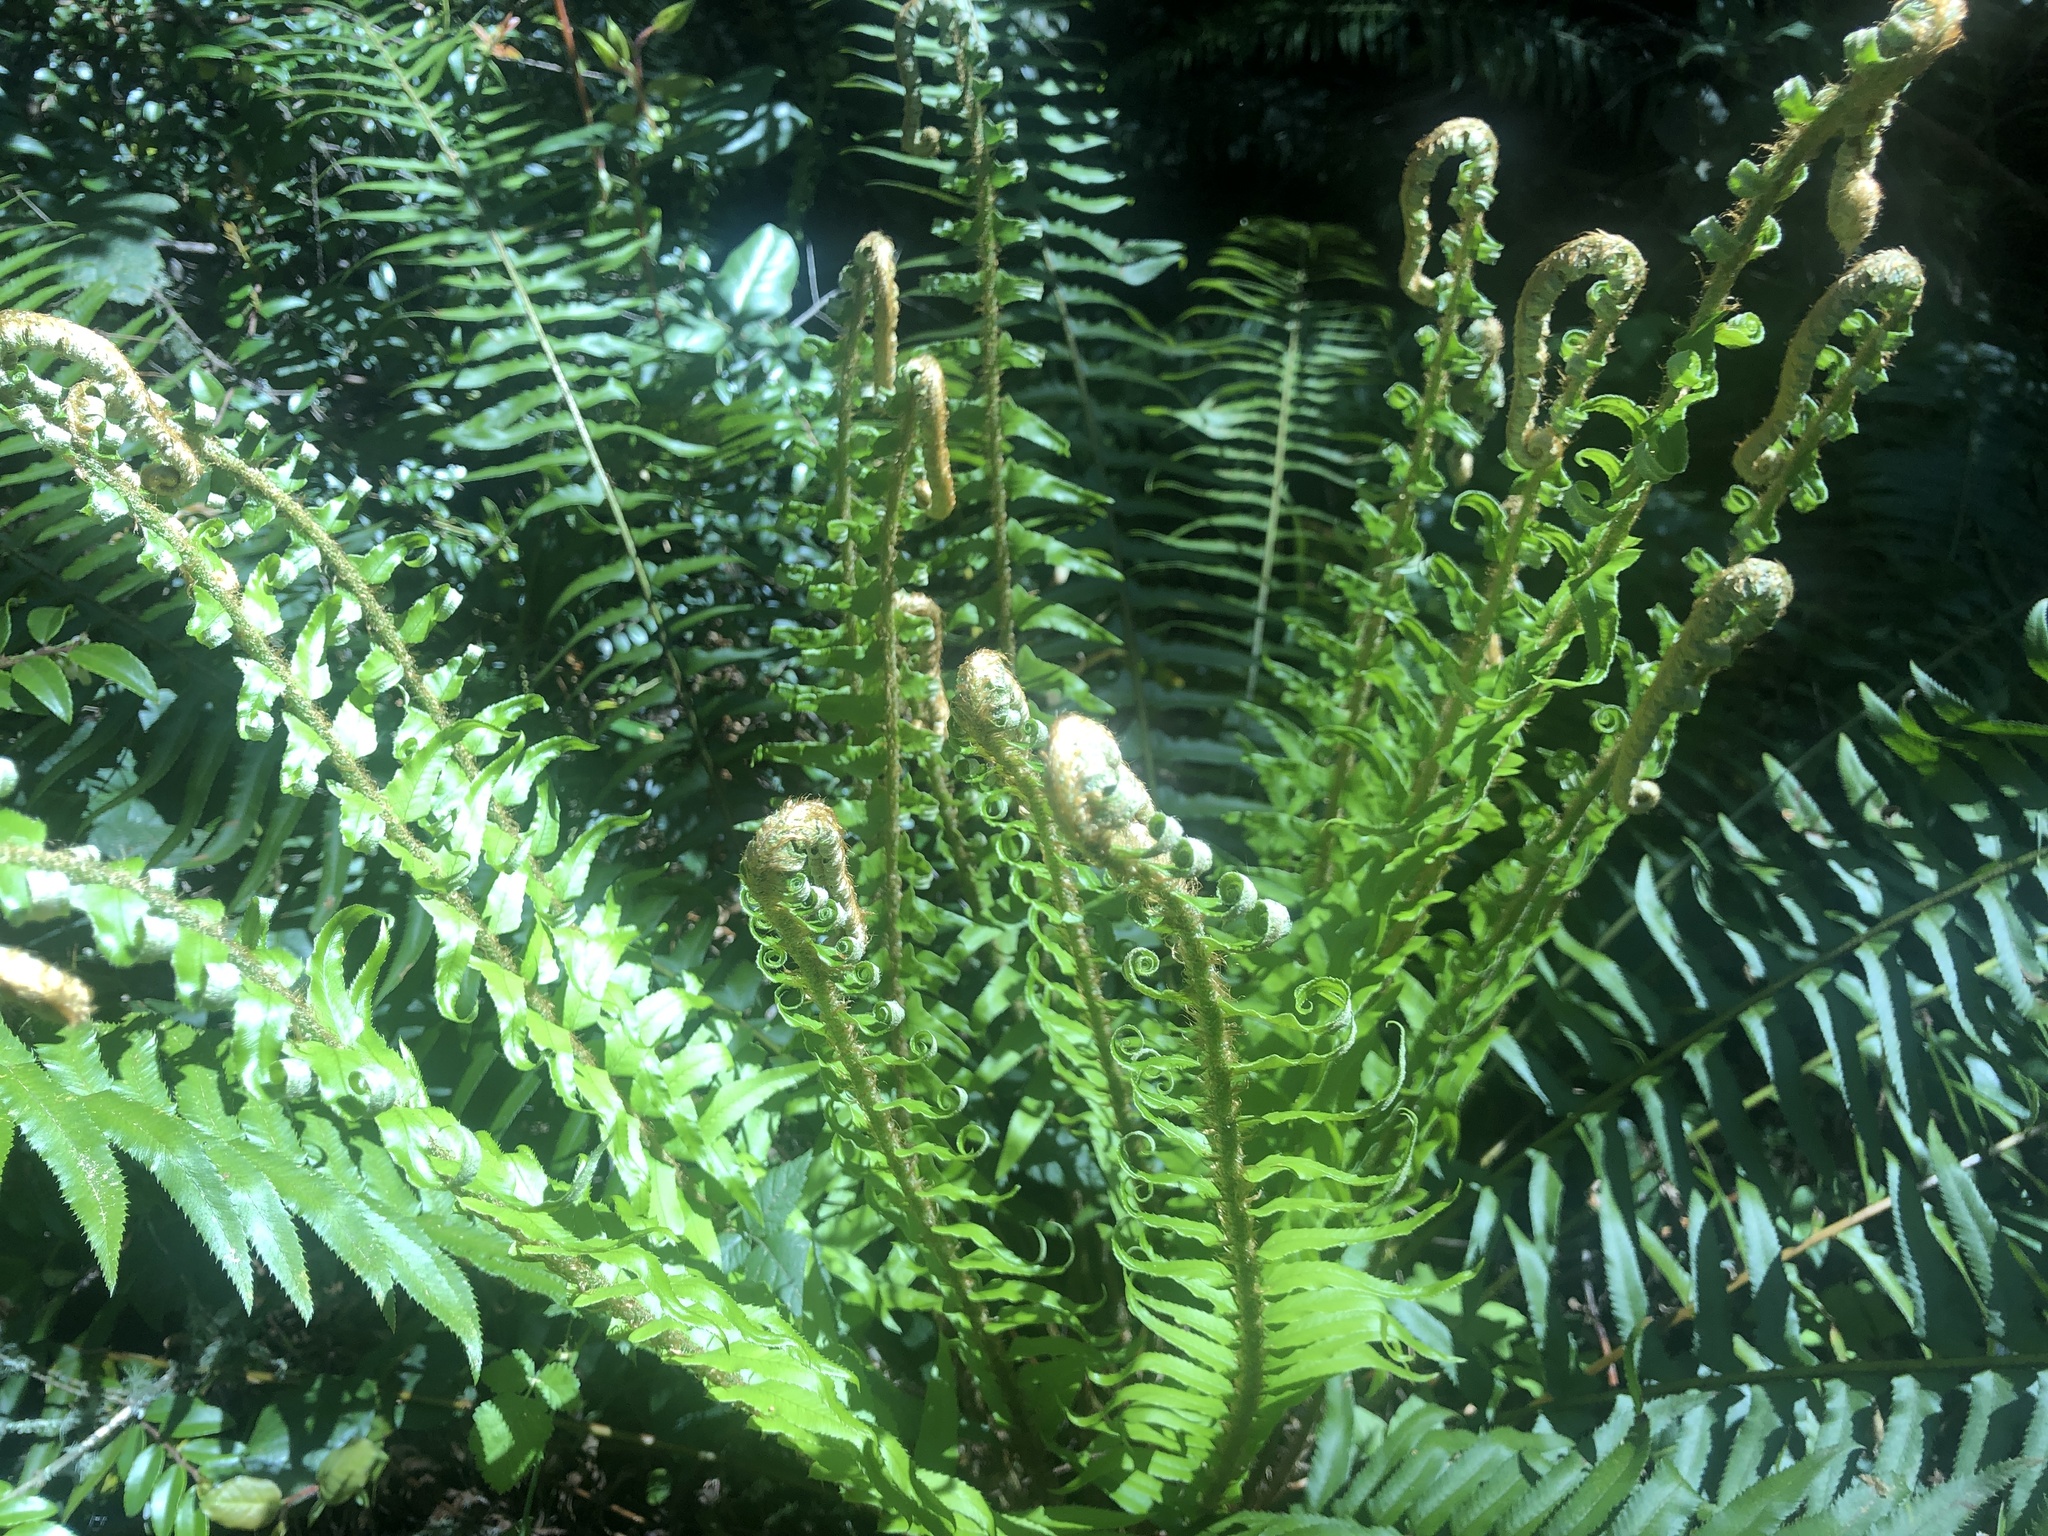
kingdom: Plantae
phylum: Tracheophyta
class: Polypodiopsida
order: Polypodiales
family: Dryopteridaceae
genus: Polystichum
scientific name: Polystichum munitum
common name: Western sword-fern
